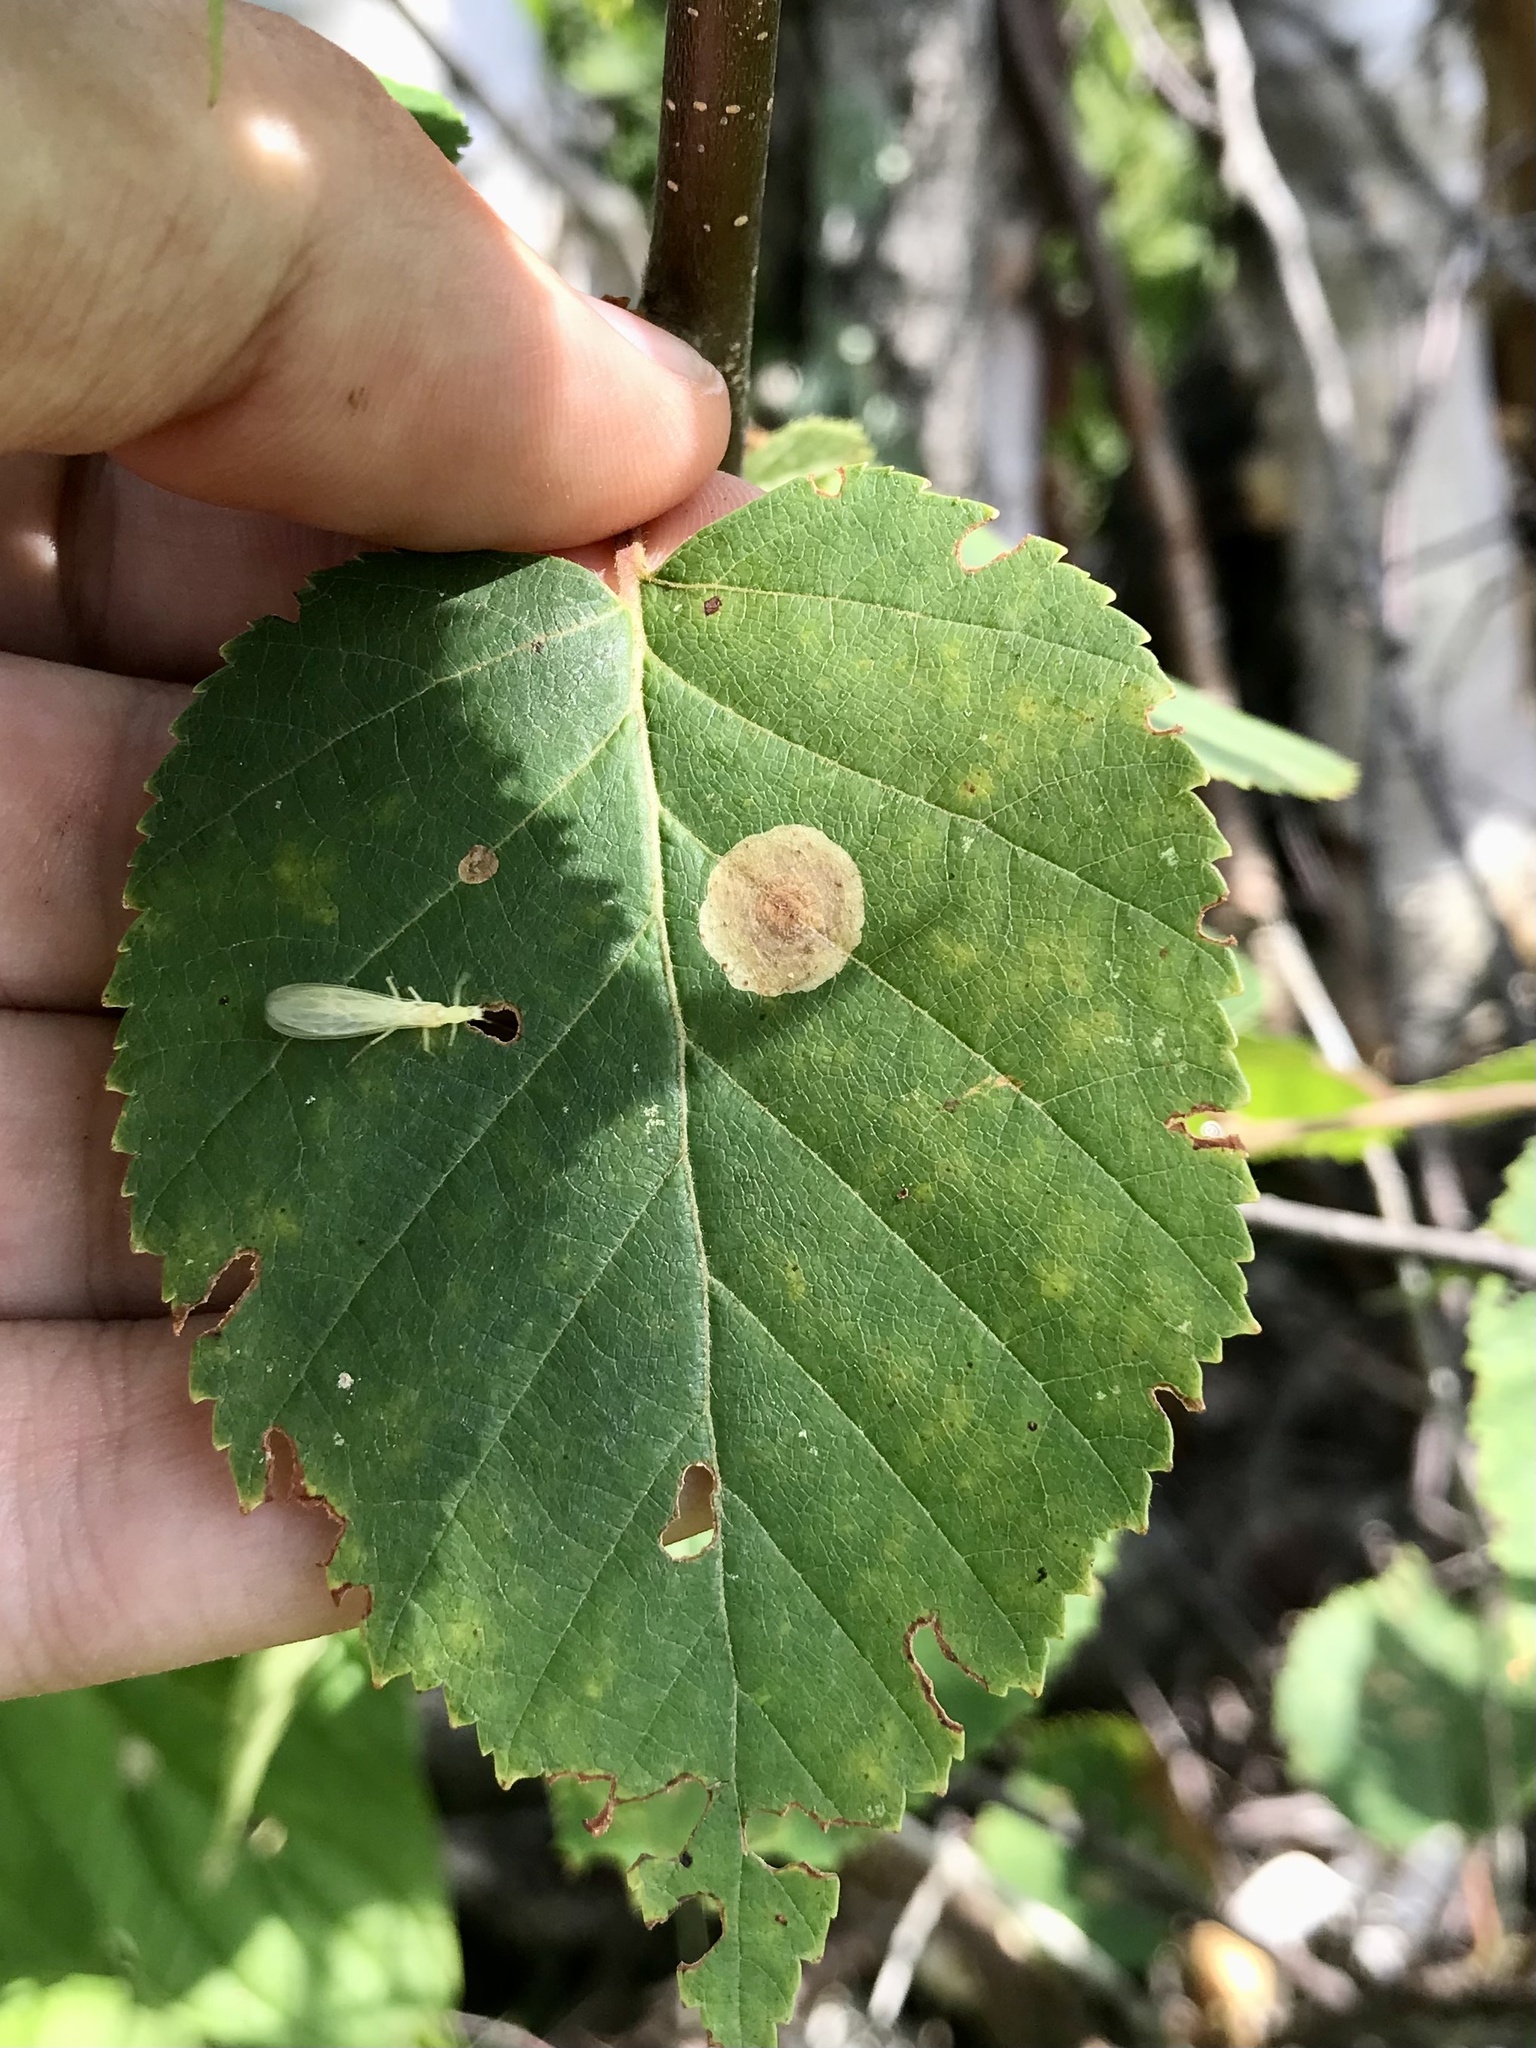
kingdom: Animalia
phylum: Arthropoda
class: Insecta
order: Lepidoptera
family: Gracillariidae
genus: Cameraria
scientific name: Cameraria betulivora
